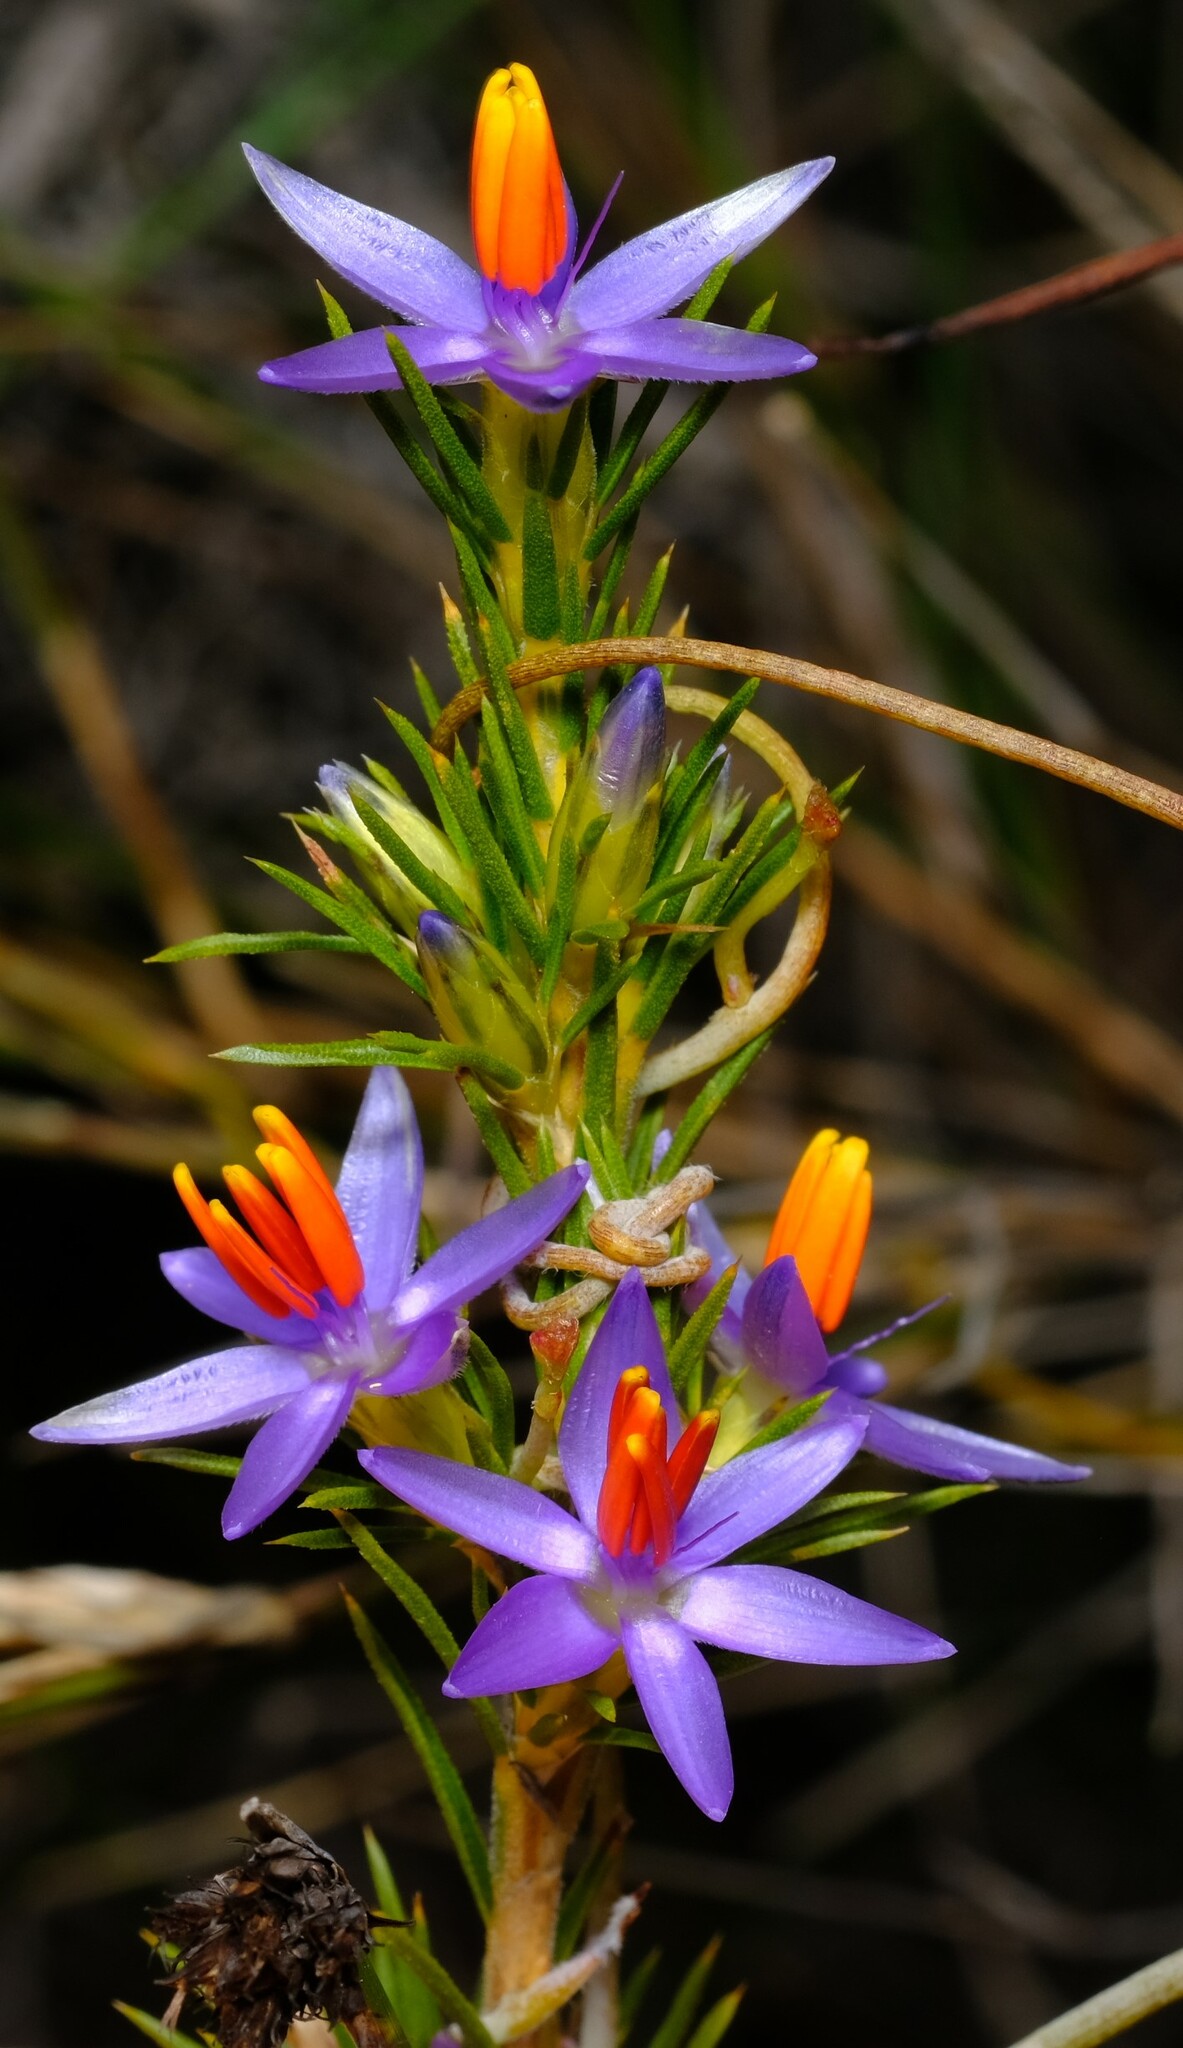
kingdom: Plantae
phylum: Tracheophyta
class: Liliopsida
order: Arecales
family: Dasypogonaceae
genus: Calectasia
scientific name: Calectasia narragara
